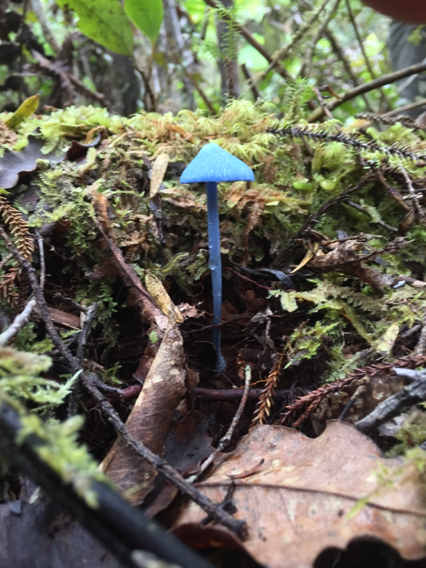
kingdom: Fungi
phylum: Basidiomycota
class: Agaricomycetes
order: Agaricales
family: Entolomataceae
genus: Entoloma
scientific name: Entoloma hochstetteri
